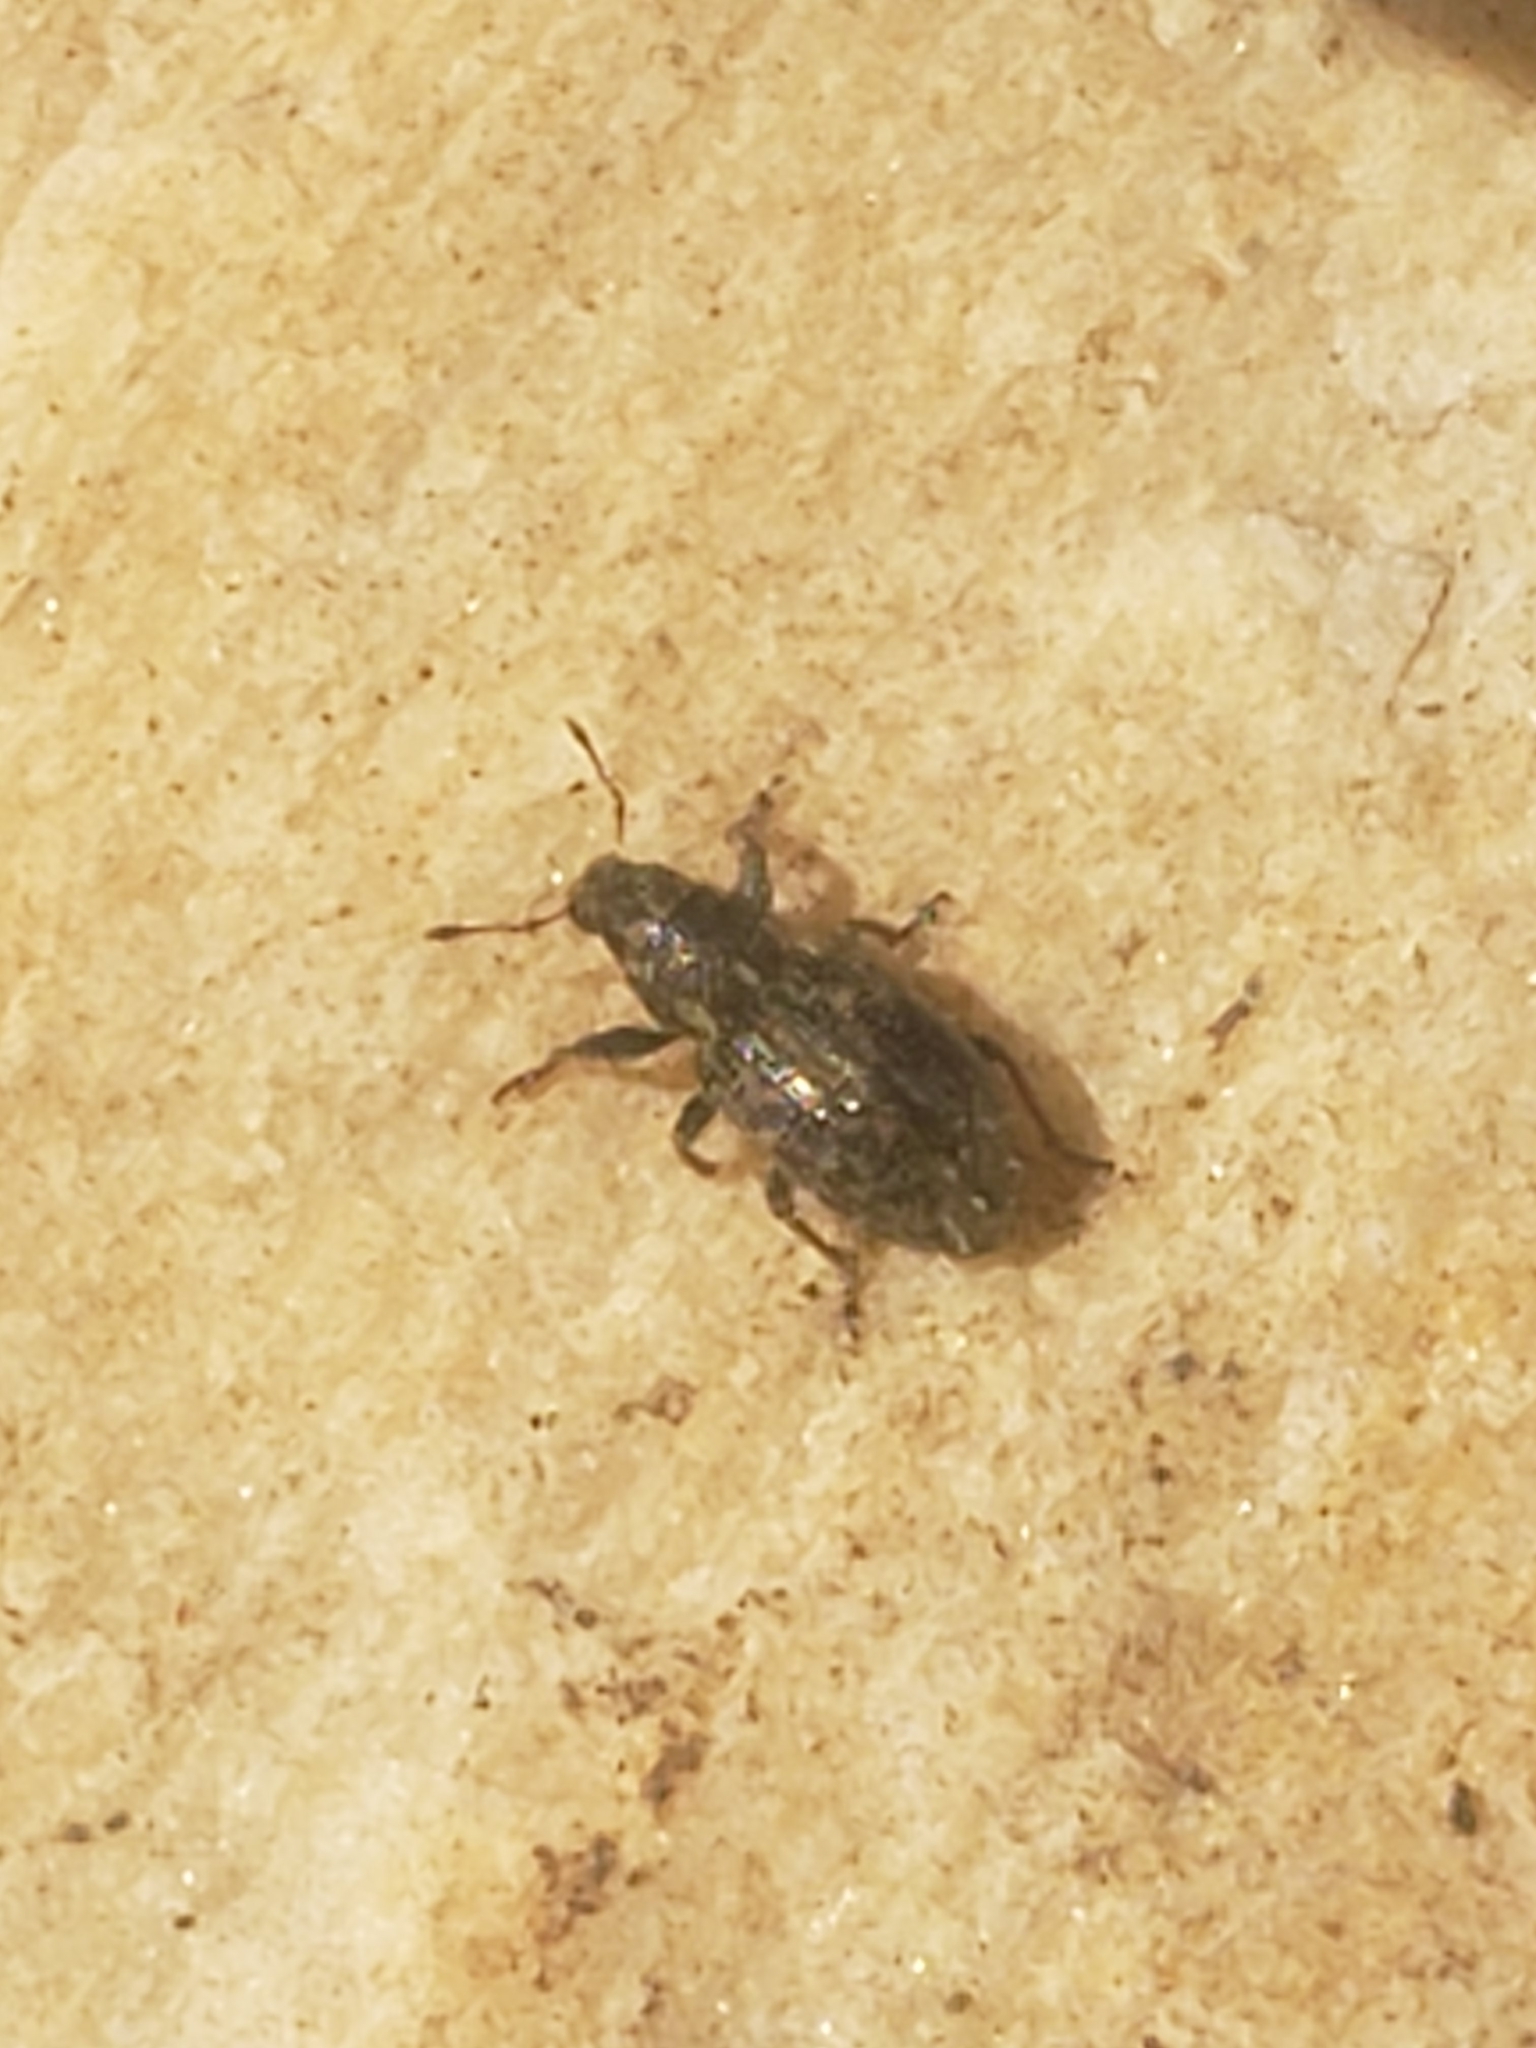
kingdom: Animalia
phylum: Arthropoda
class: Insecta
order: Coleoptera
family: Curculionidae
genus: Sitona
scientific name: Sitona hispidulus
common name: Clover weevil
